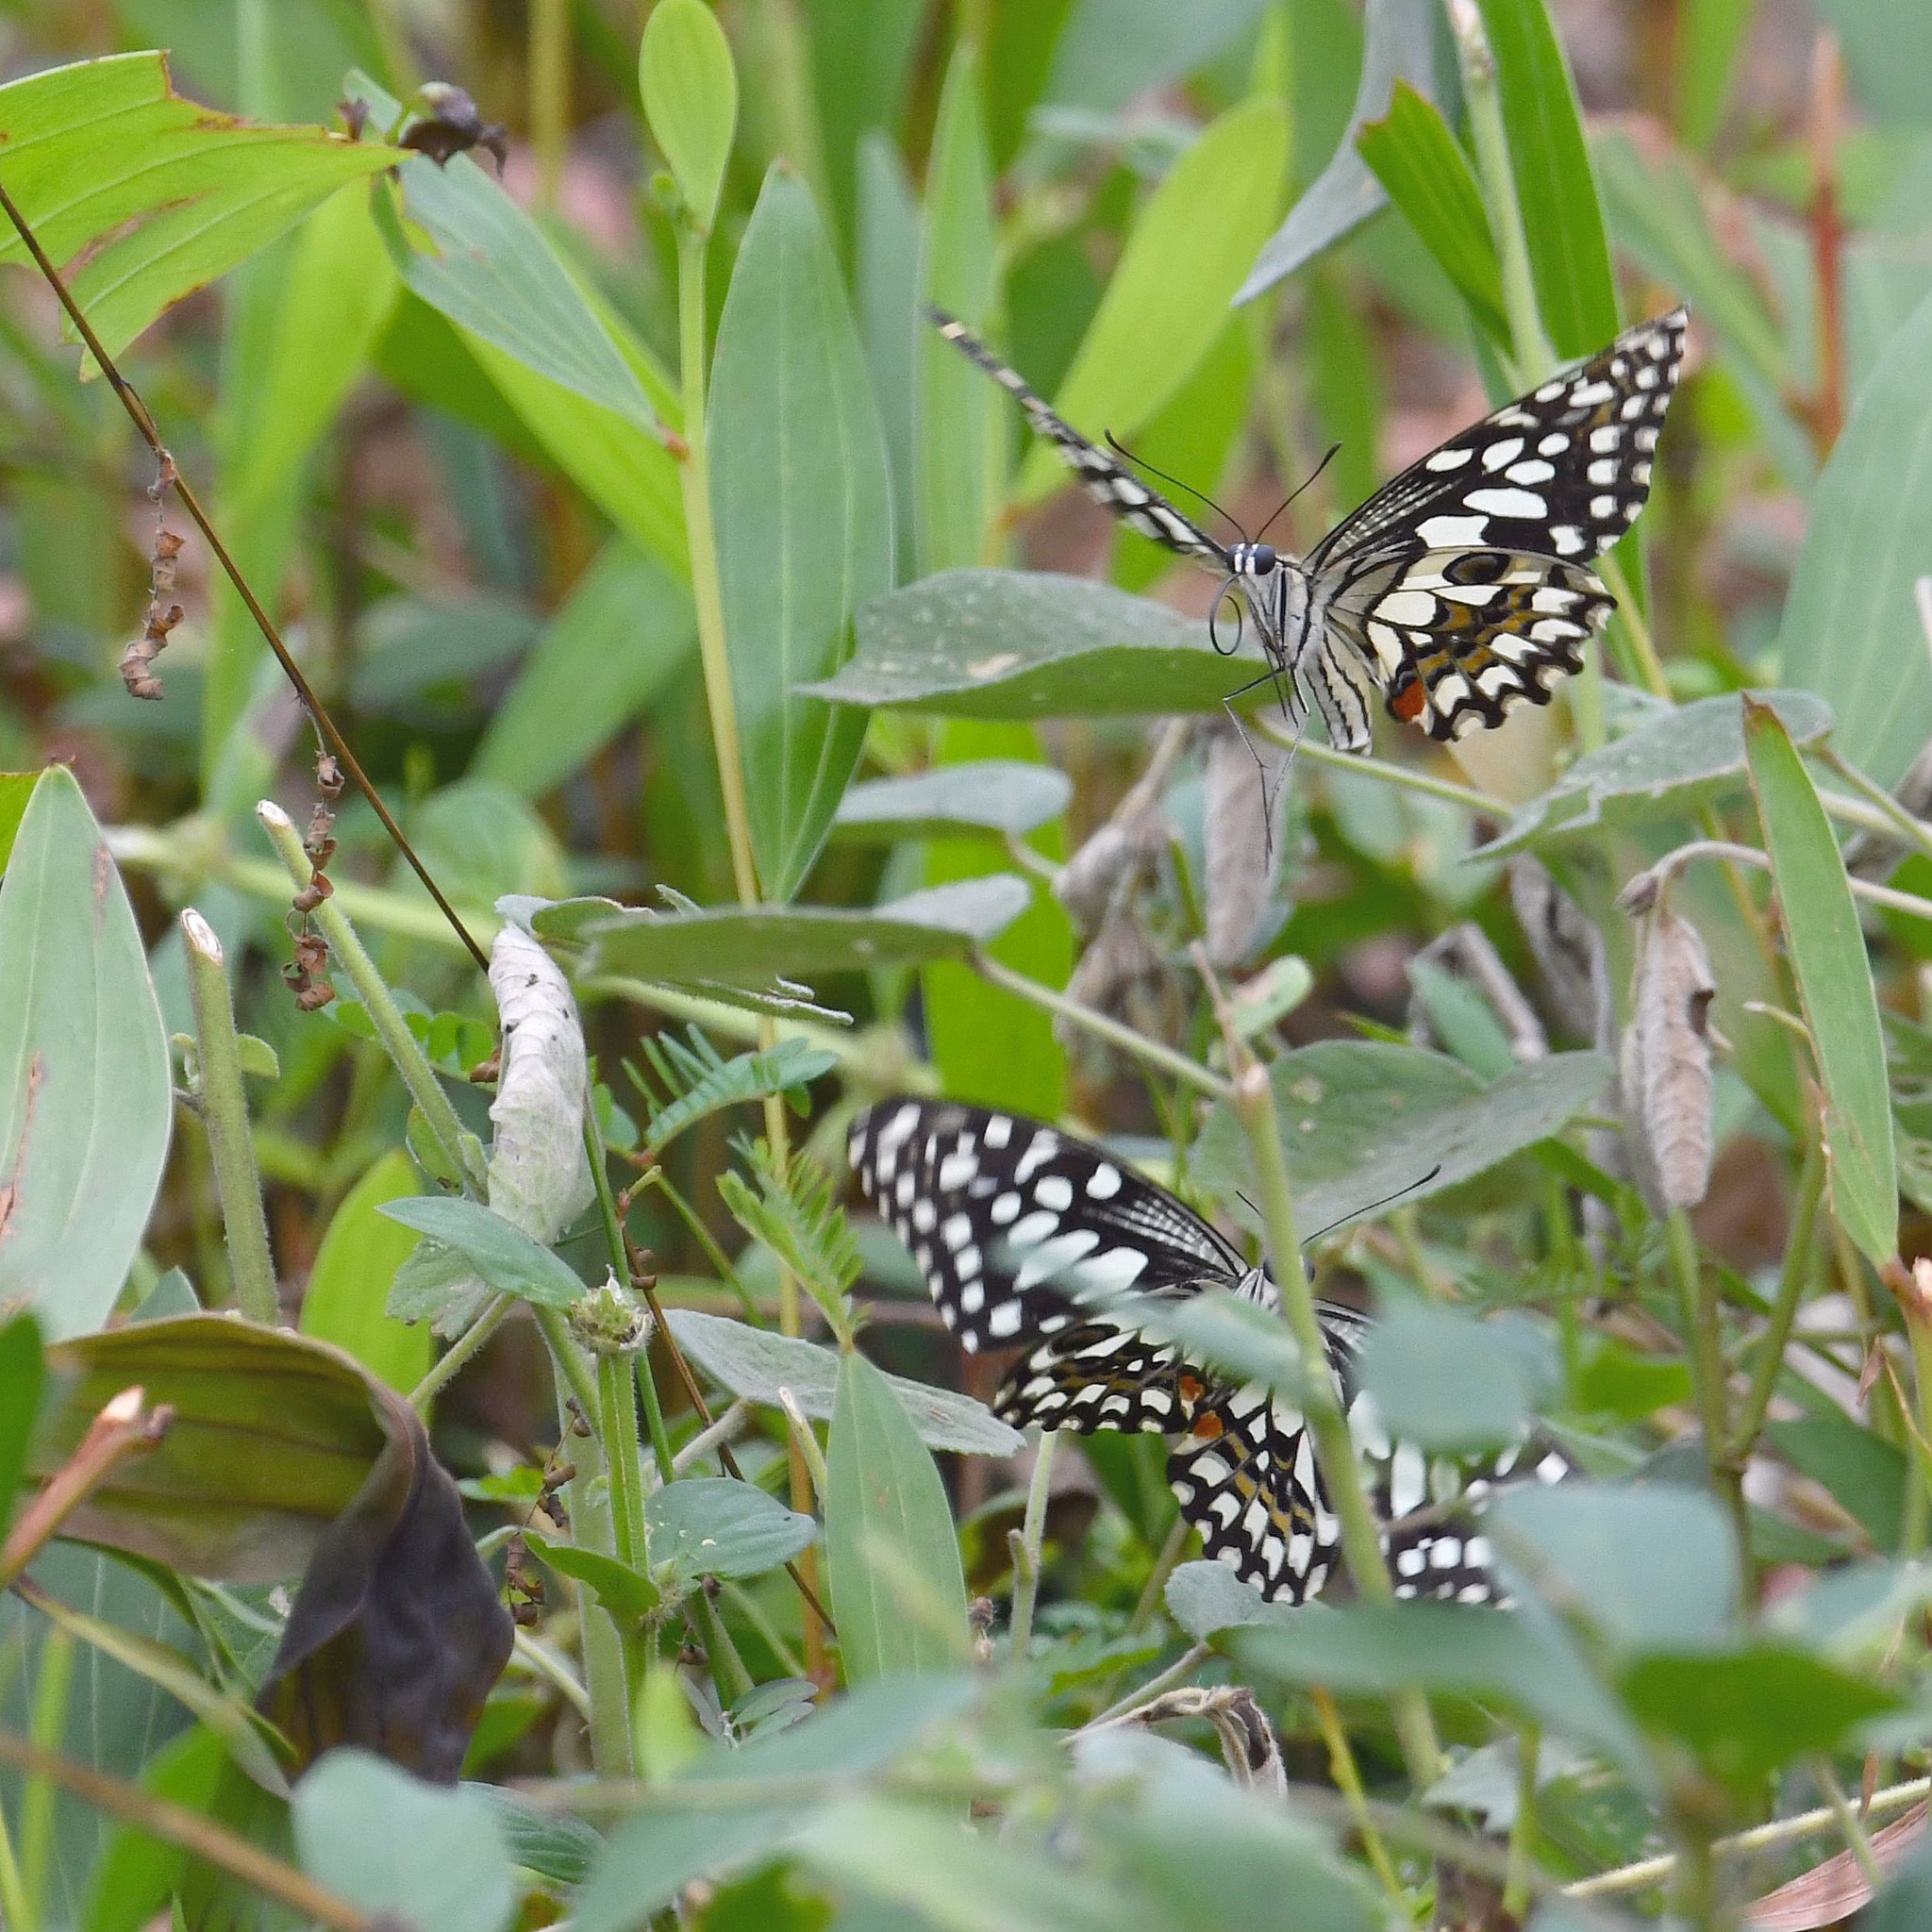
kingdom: Animalia
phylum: Arthropoda
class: Insecta
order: Lepidoptera
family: Papilionidae
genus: Papilio
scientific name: Papilio demoleus
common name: Lime butterfly
